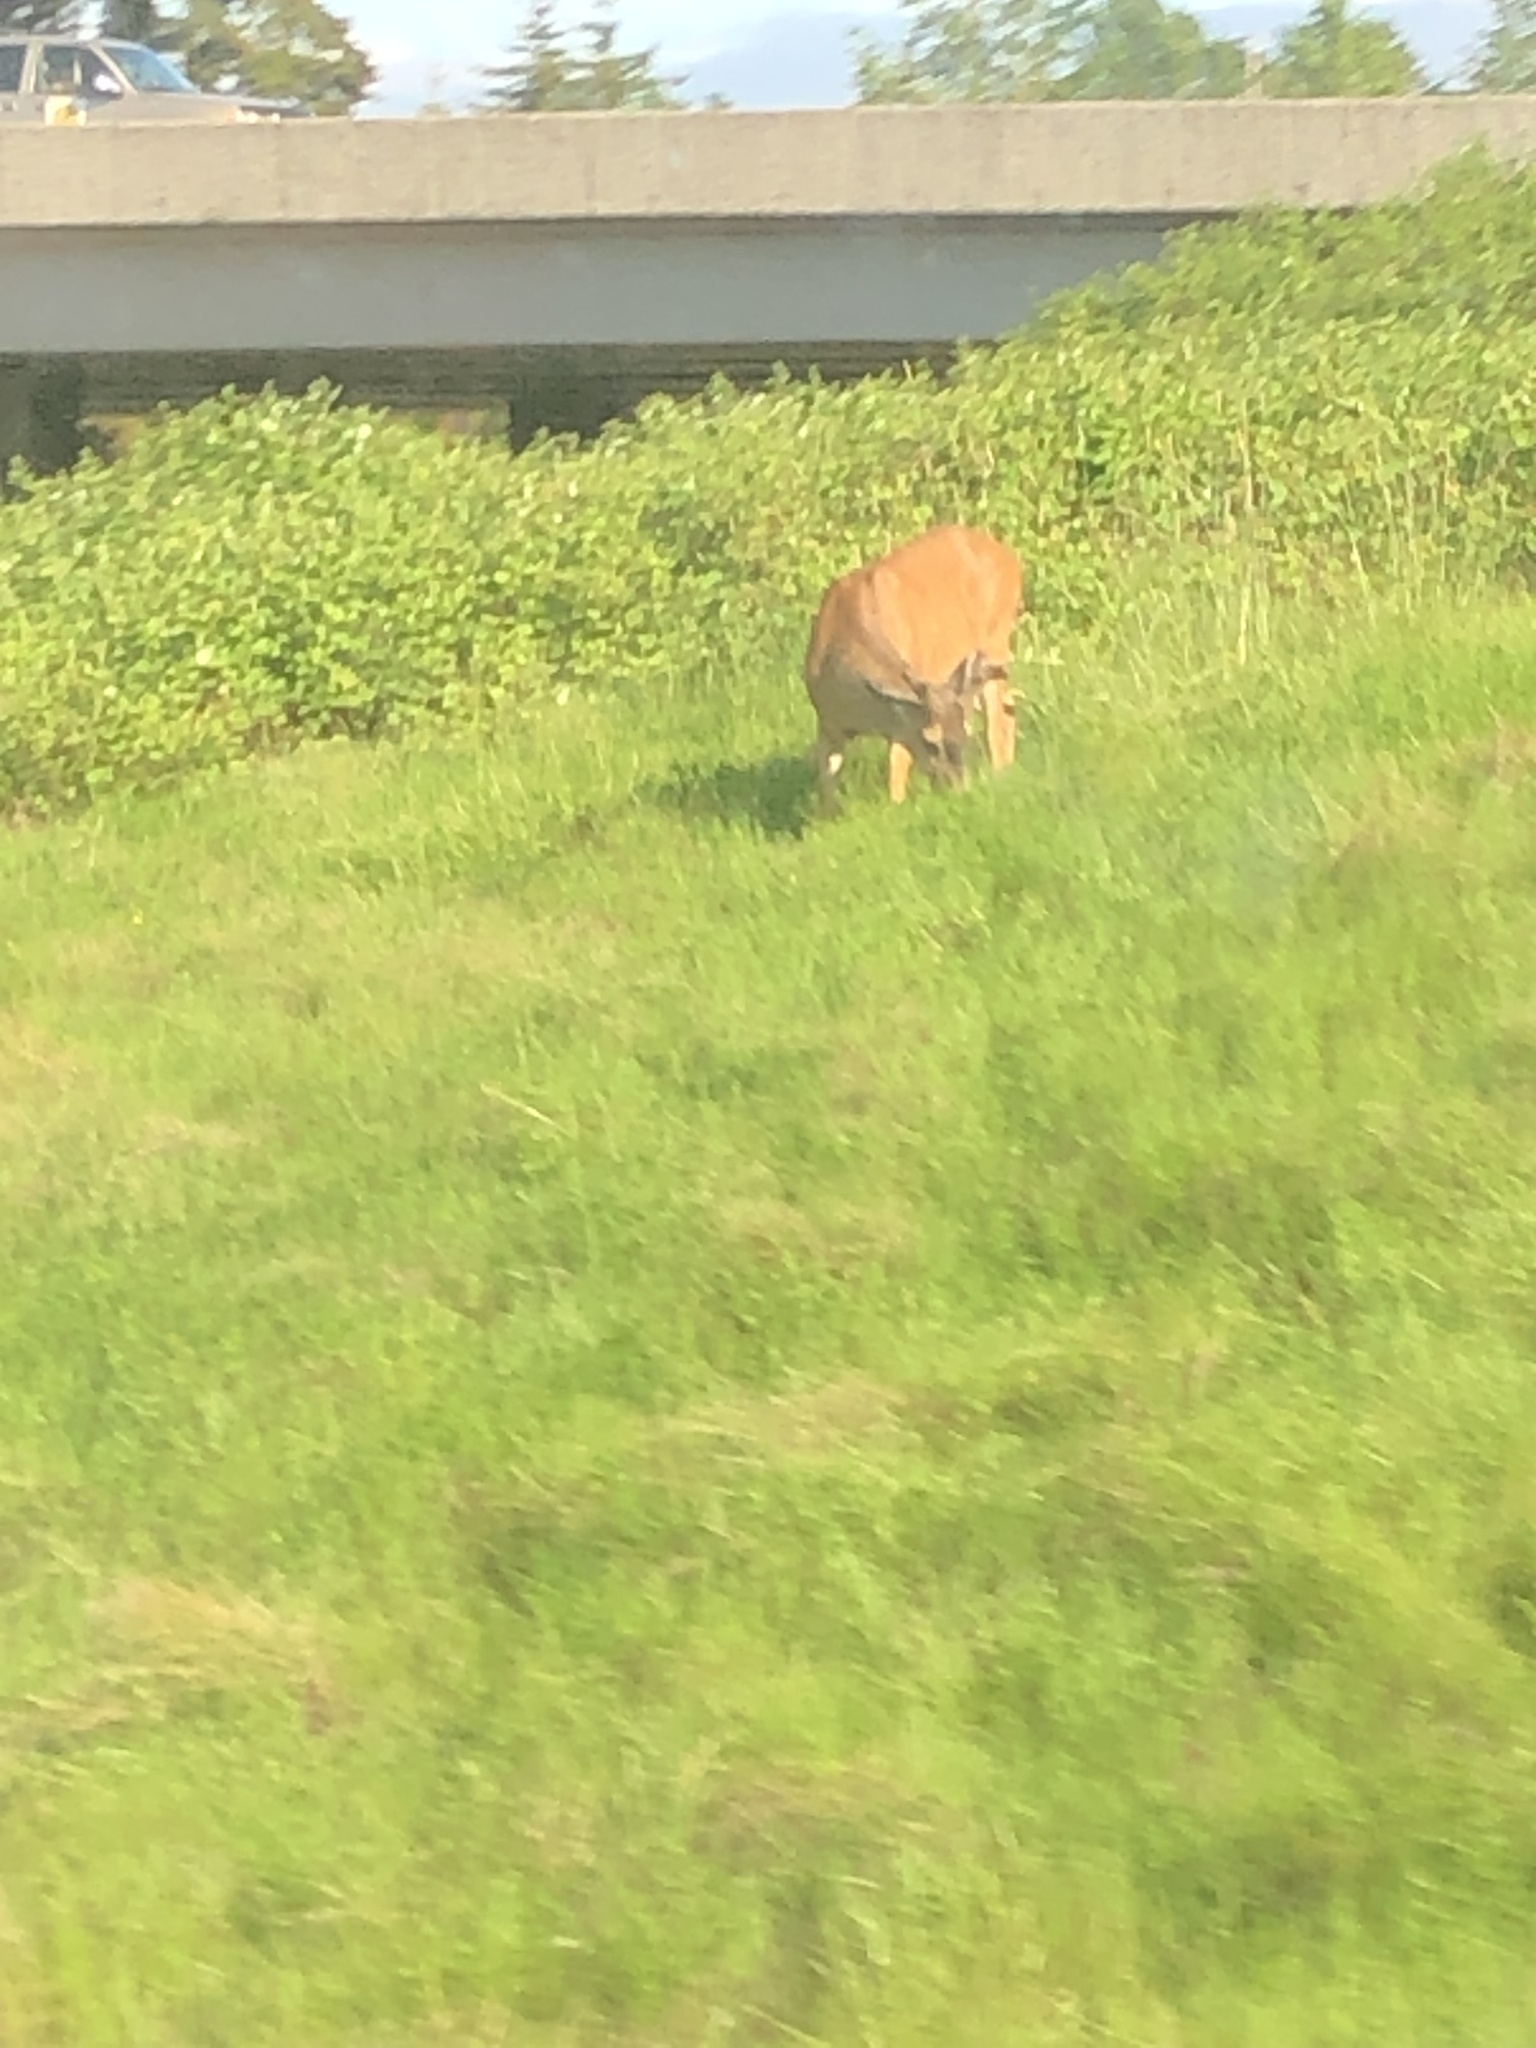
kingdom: Animalia
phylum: Chordata
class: Mammalia
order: Artiodactyla
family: Cervidae
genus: Odocoileus
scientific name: Odocoileus hemionus
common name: Mule deer
